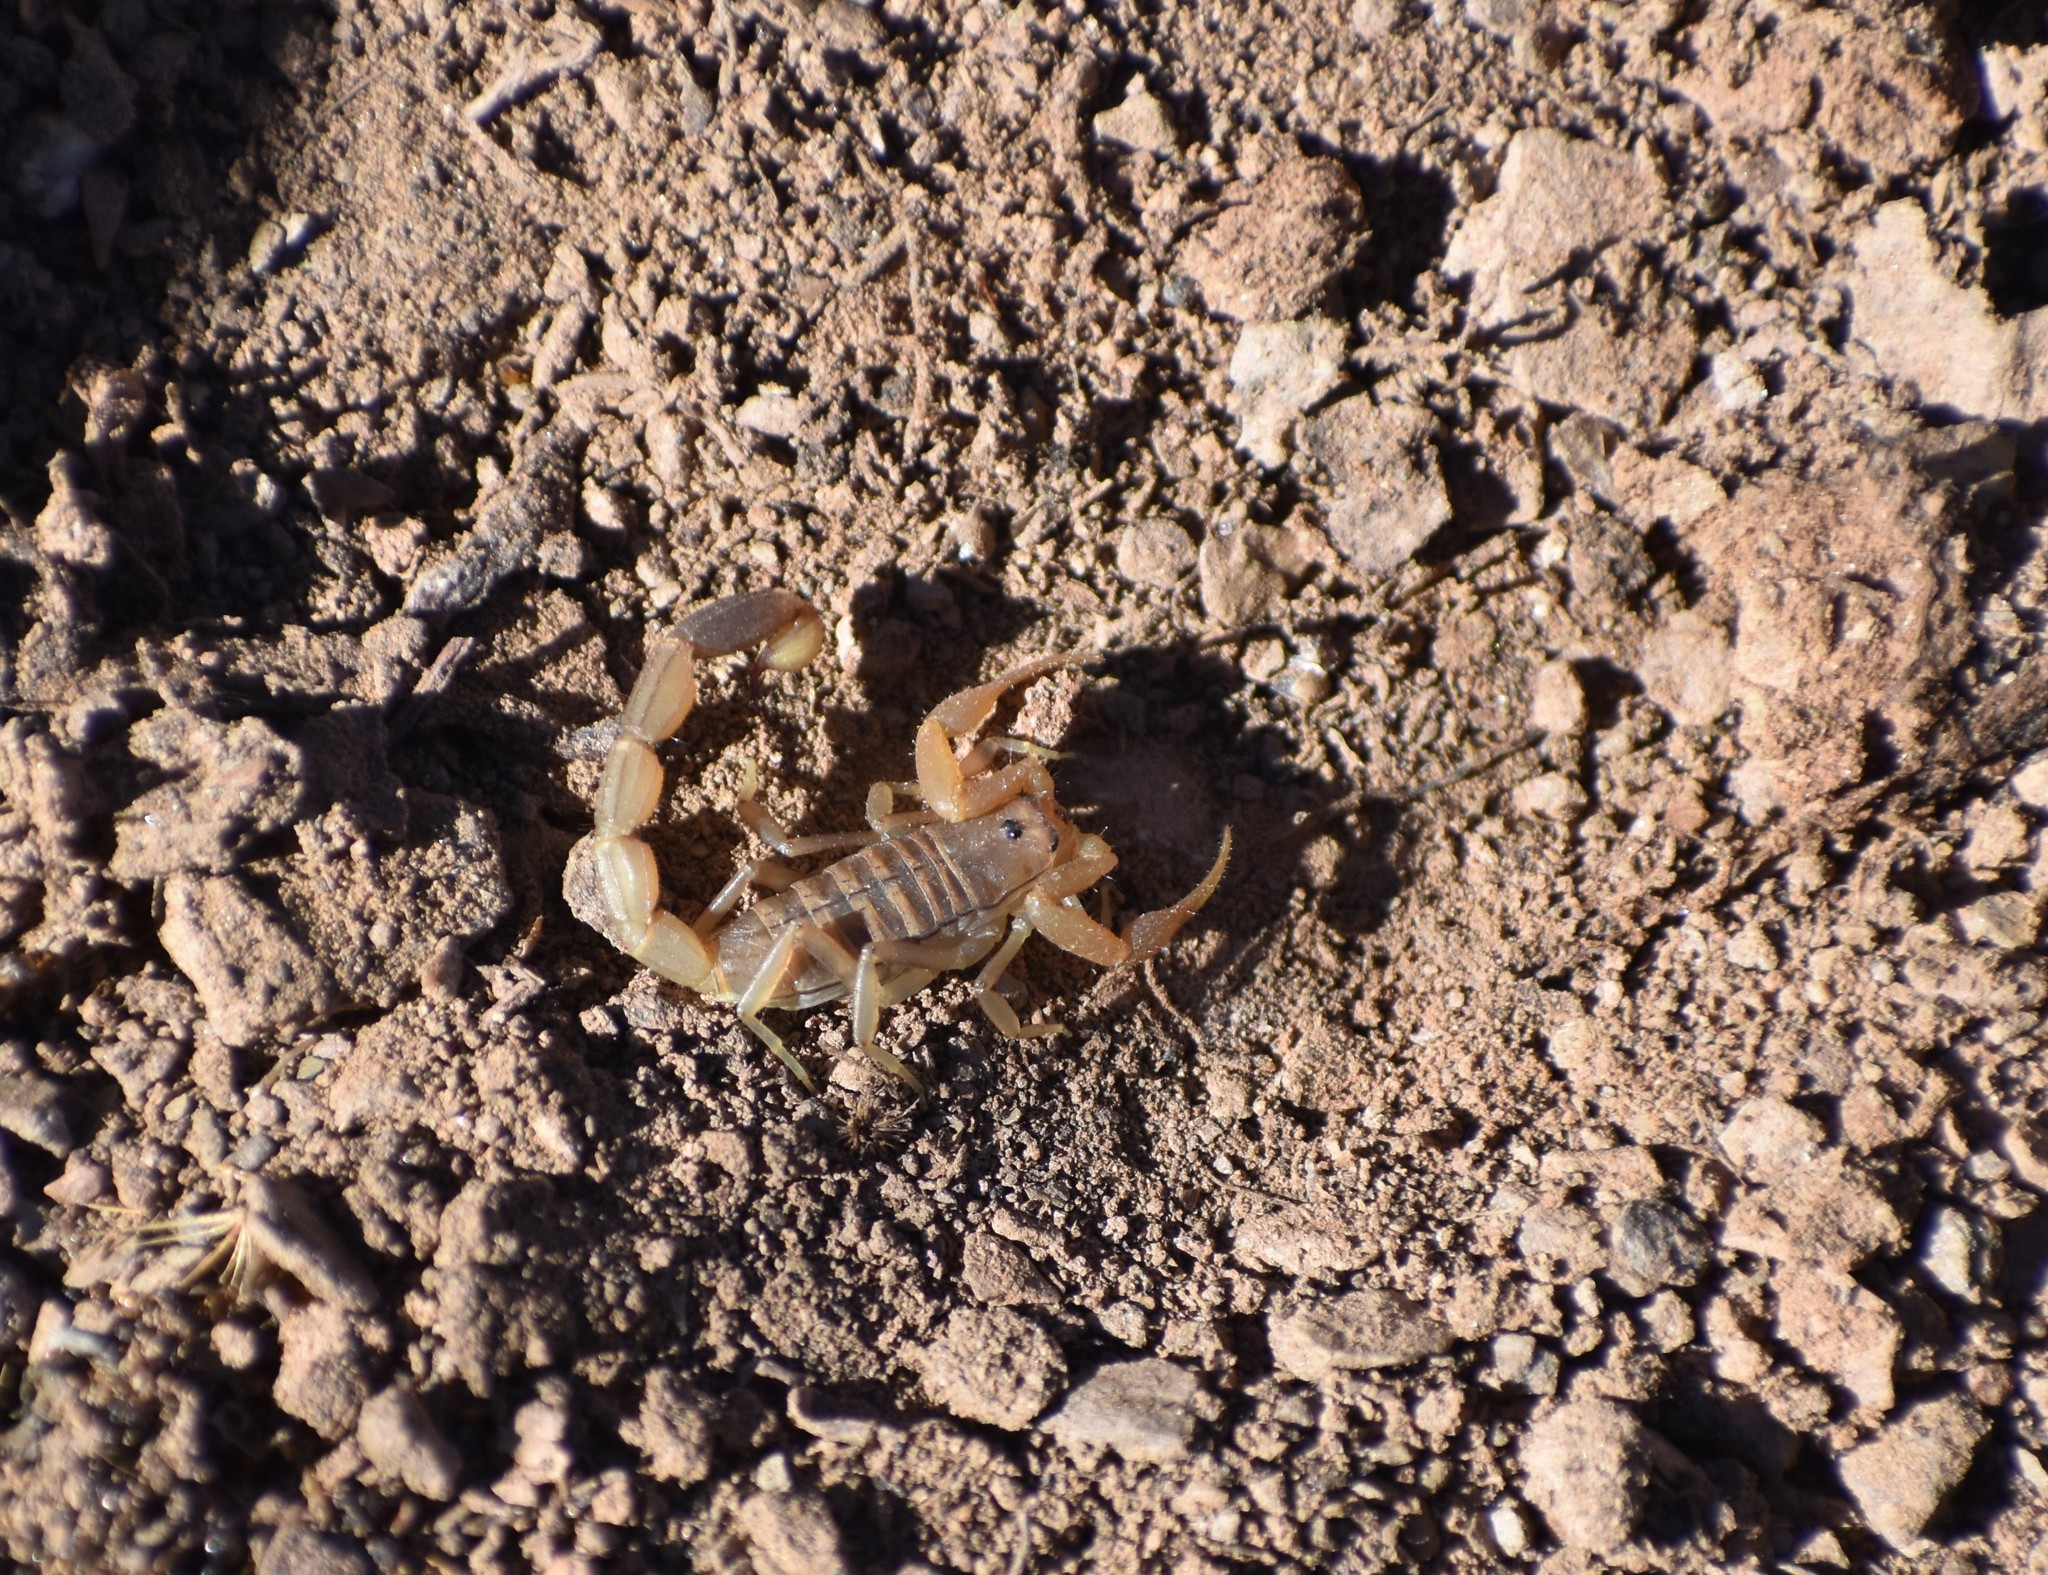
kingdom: Animalia
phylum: Arthropoda
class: Arachnida
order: Scorpiones
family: Buthidae
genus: Uroplectes
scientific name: Uroplectes carinatus
